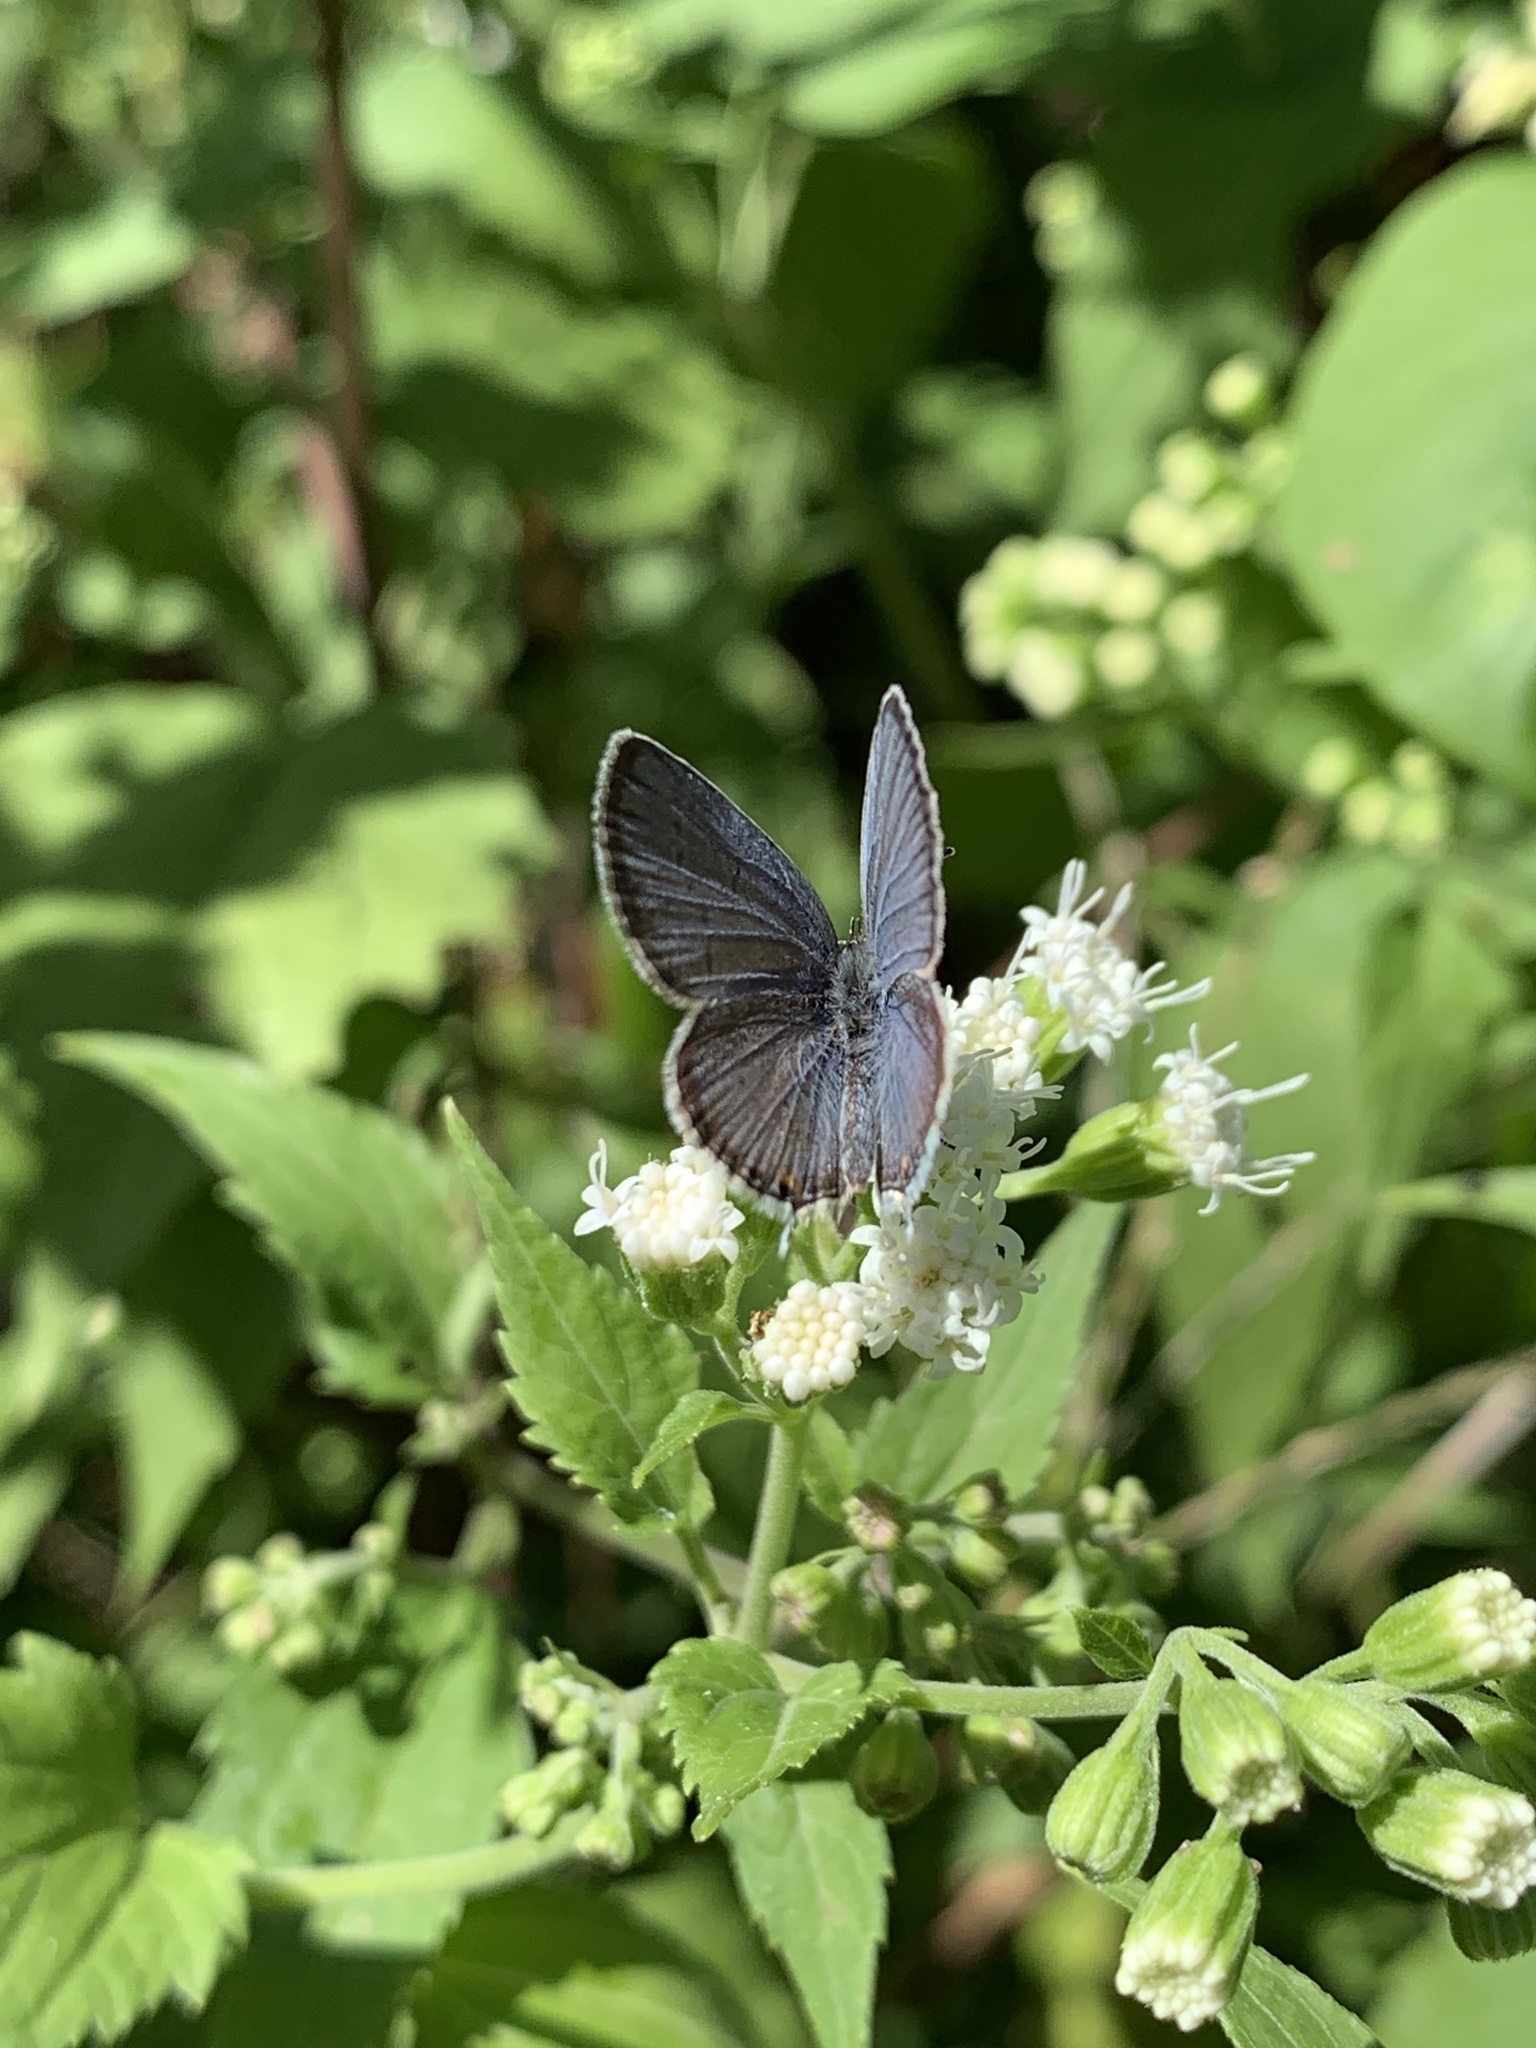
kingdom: Animalia
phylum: Arthropoda
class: Insecta
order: Lepidoptera
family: Lycaenidae
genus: Elkalyce
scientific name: Elkalyce comyntas
